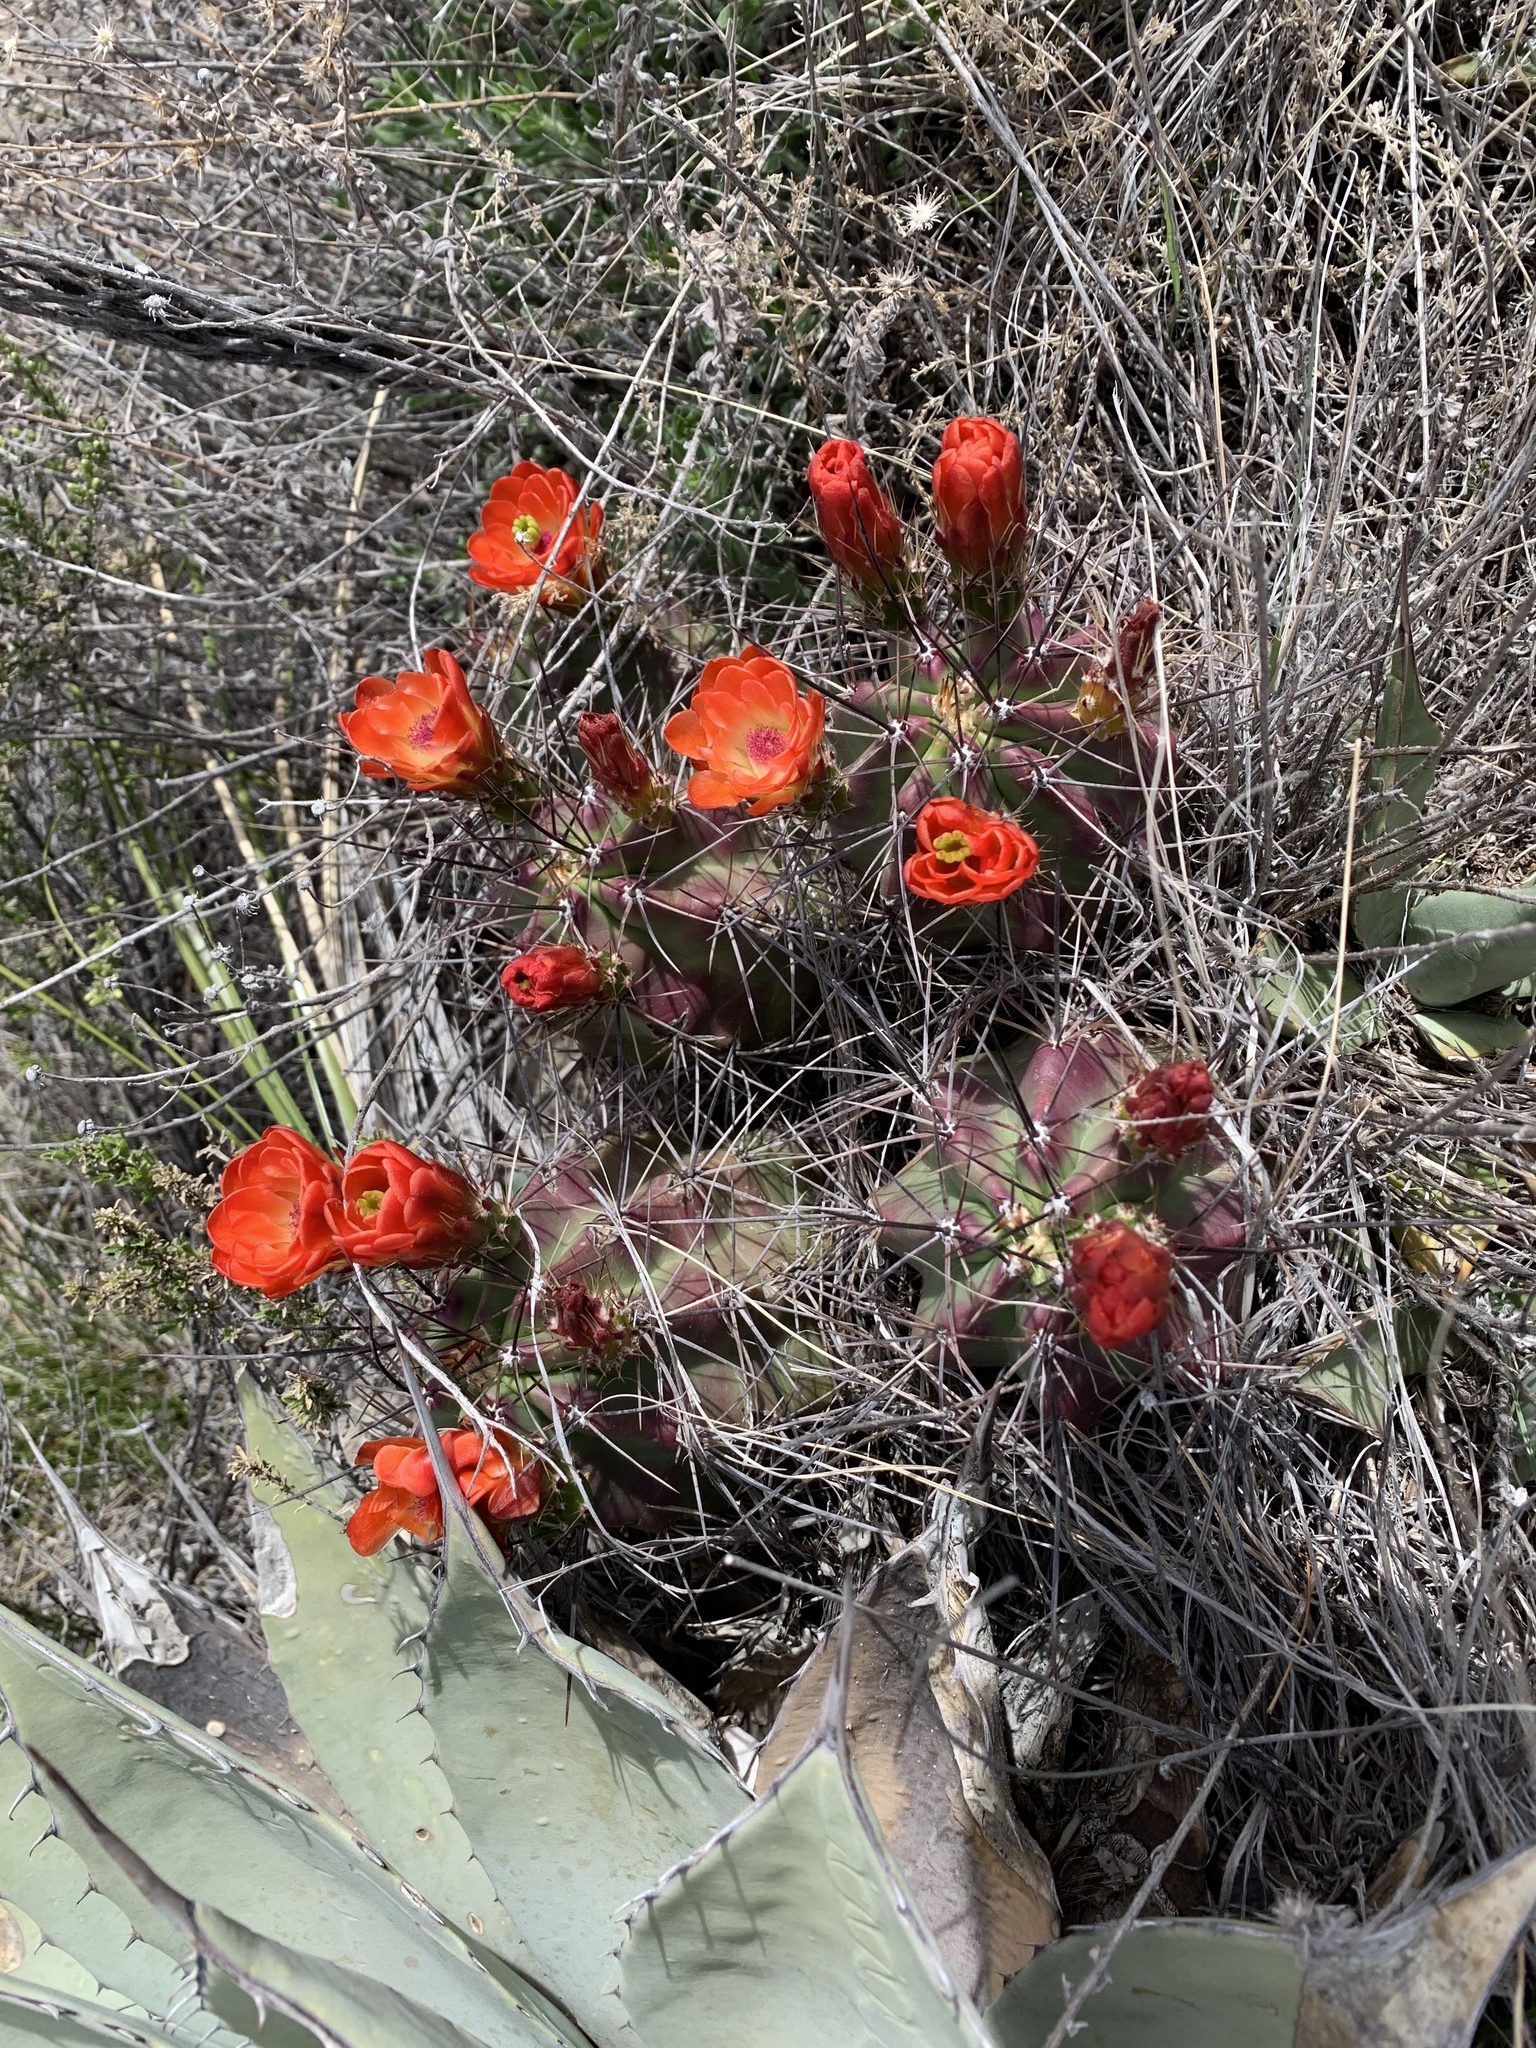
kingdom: Plantae
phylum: Tracheophyta
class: Magnoliopsida
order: Caryophyllales
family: Cactaceae
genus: Echinocereus
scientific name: Echinocereus coccineus
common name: Scarlet hedgehog cactus
